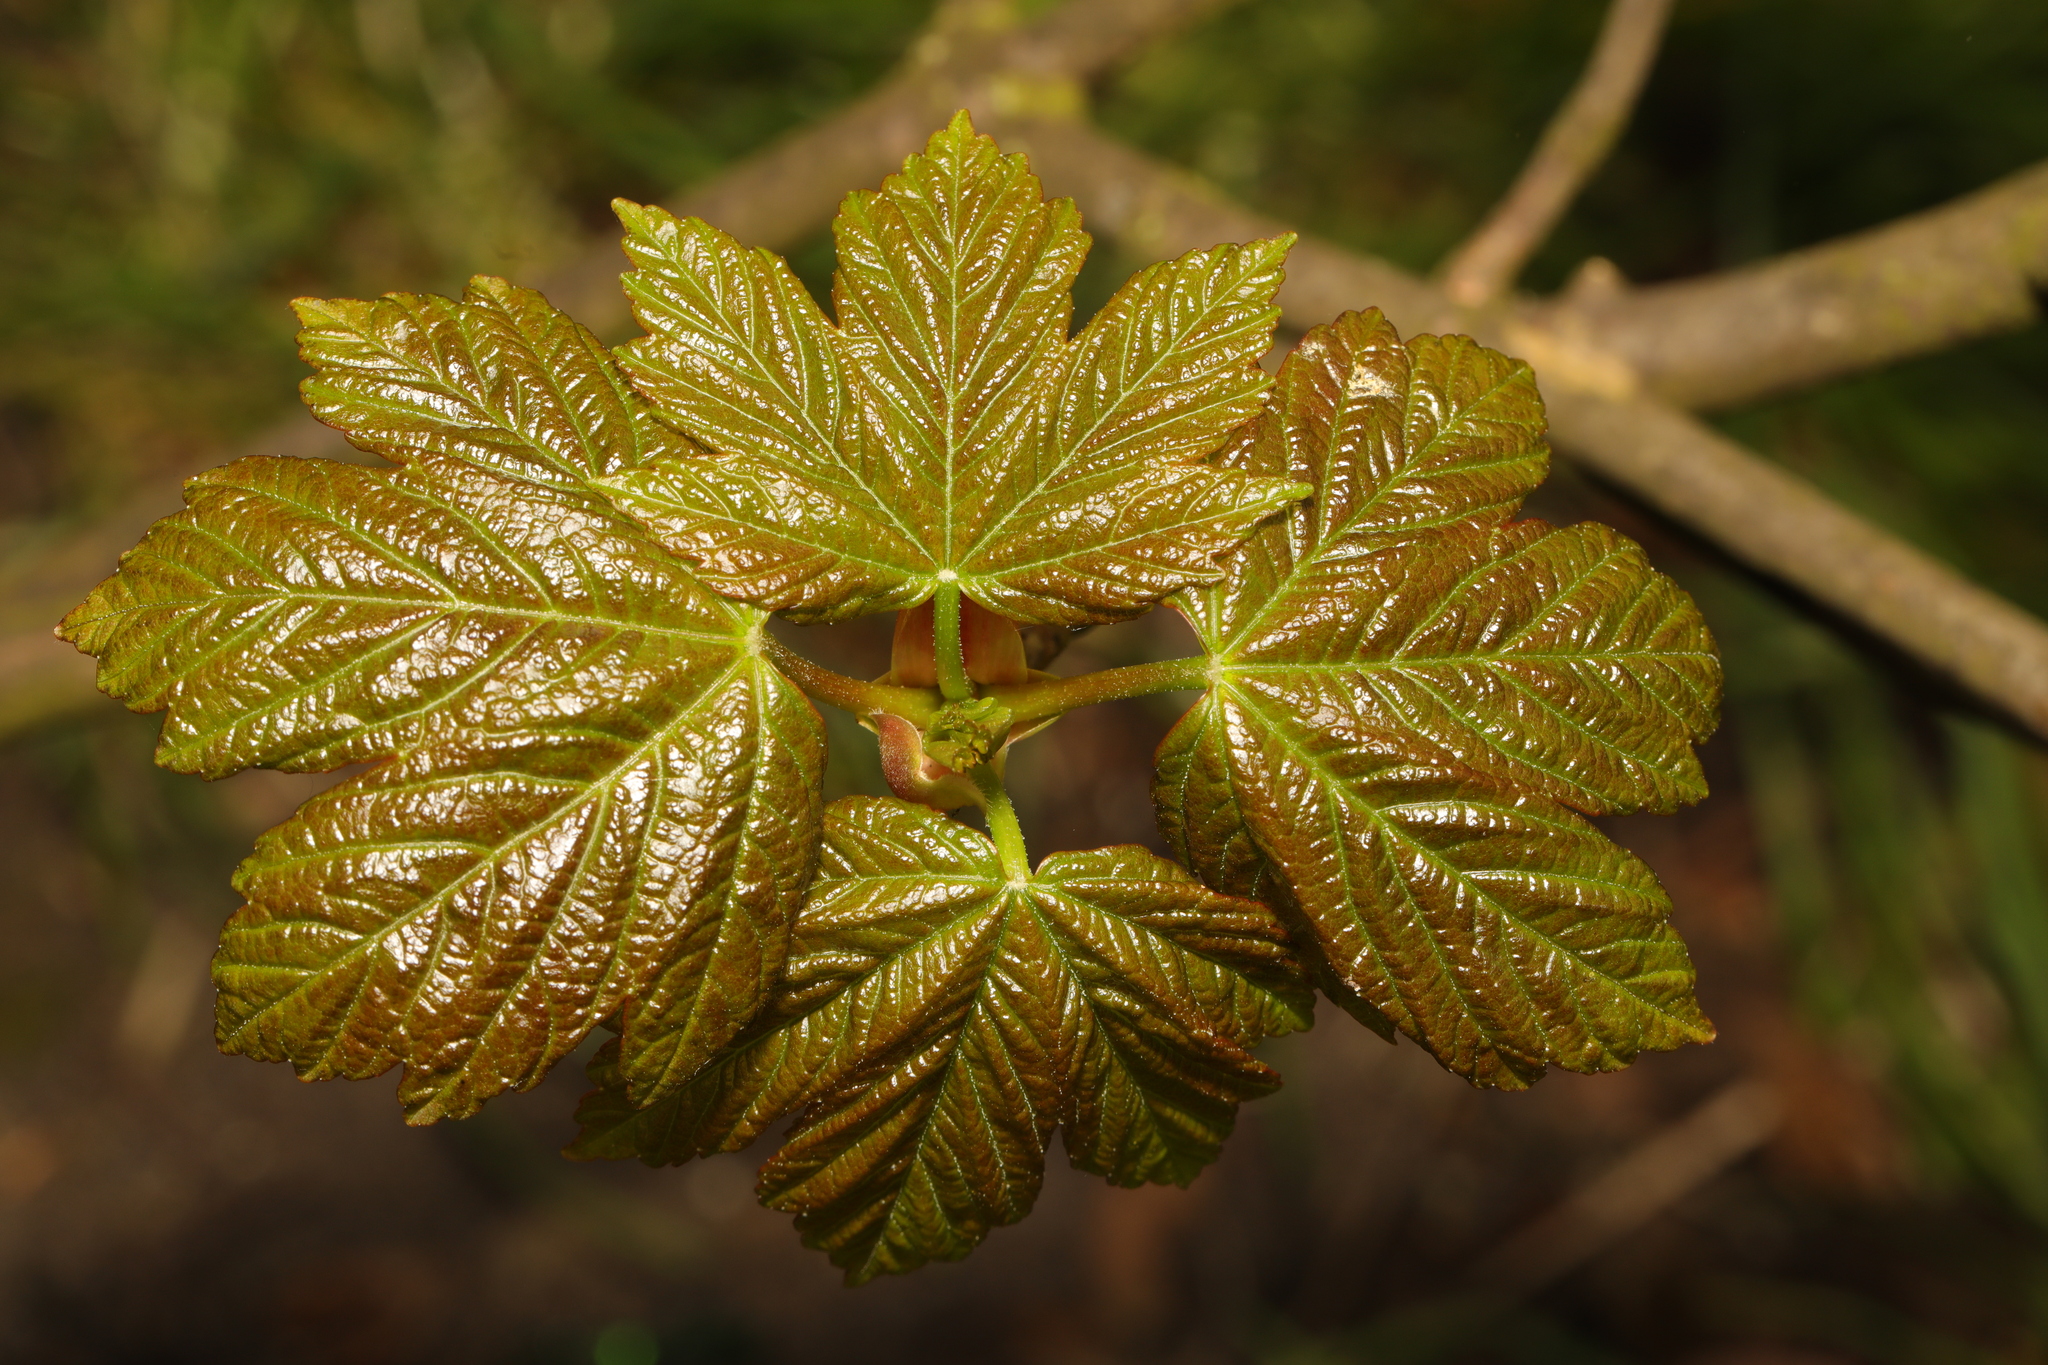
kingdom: Plantae
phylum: Tracheophyta
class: Magnoliopsida
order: Sapindales
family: Sapindaceae
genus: Acer
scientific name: Acer pseudoplatanus
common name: Sycamore
